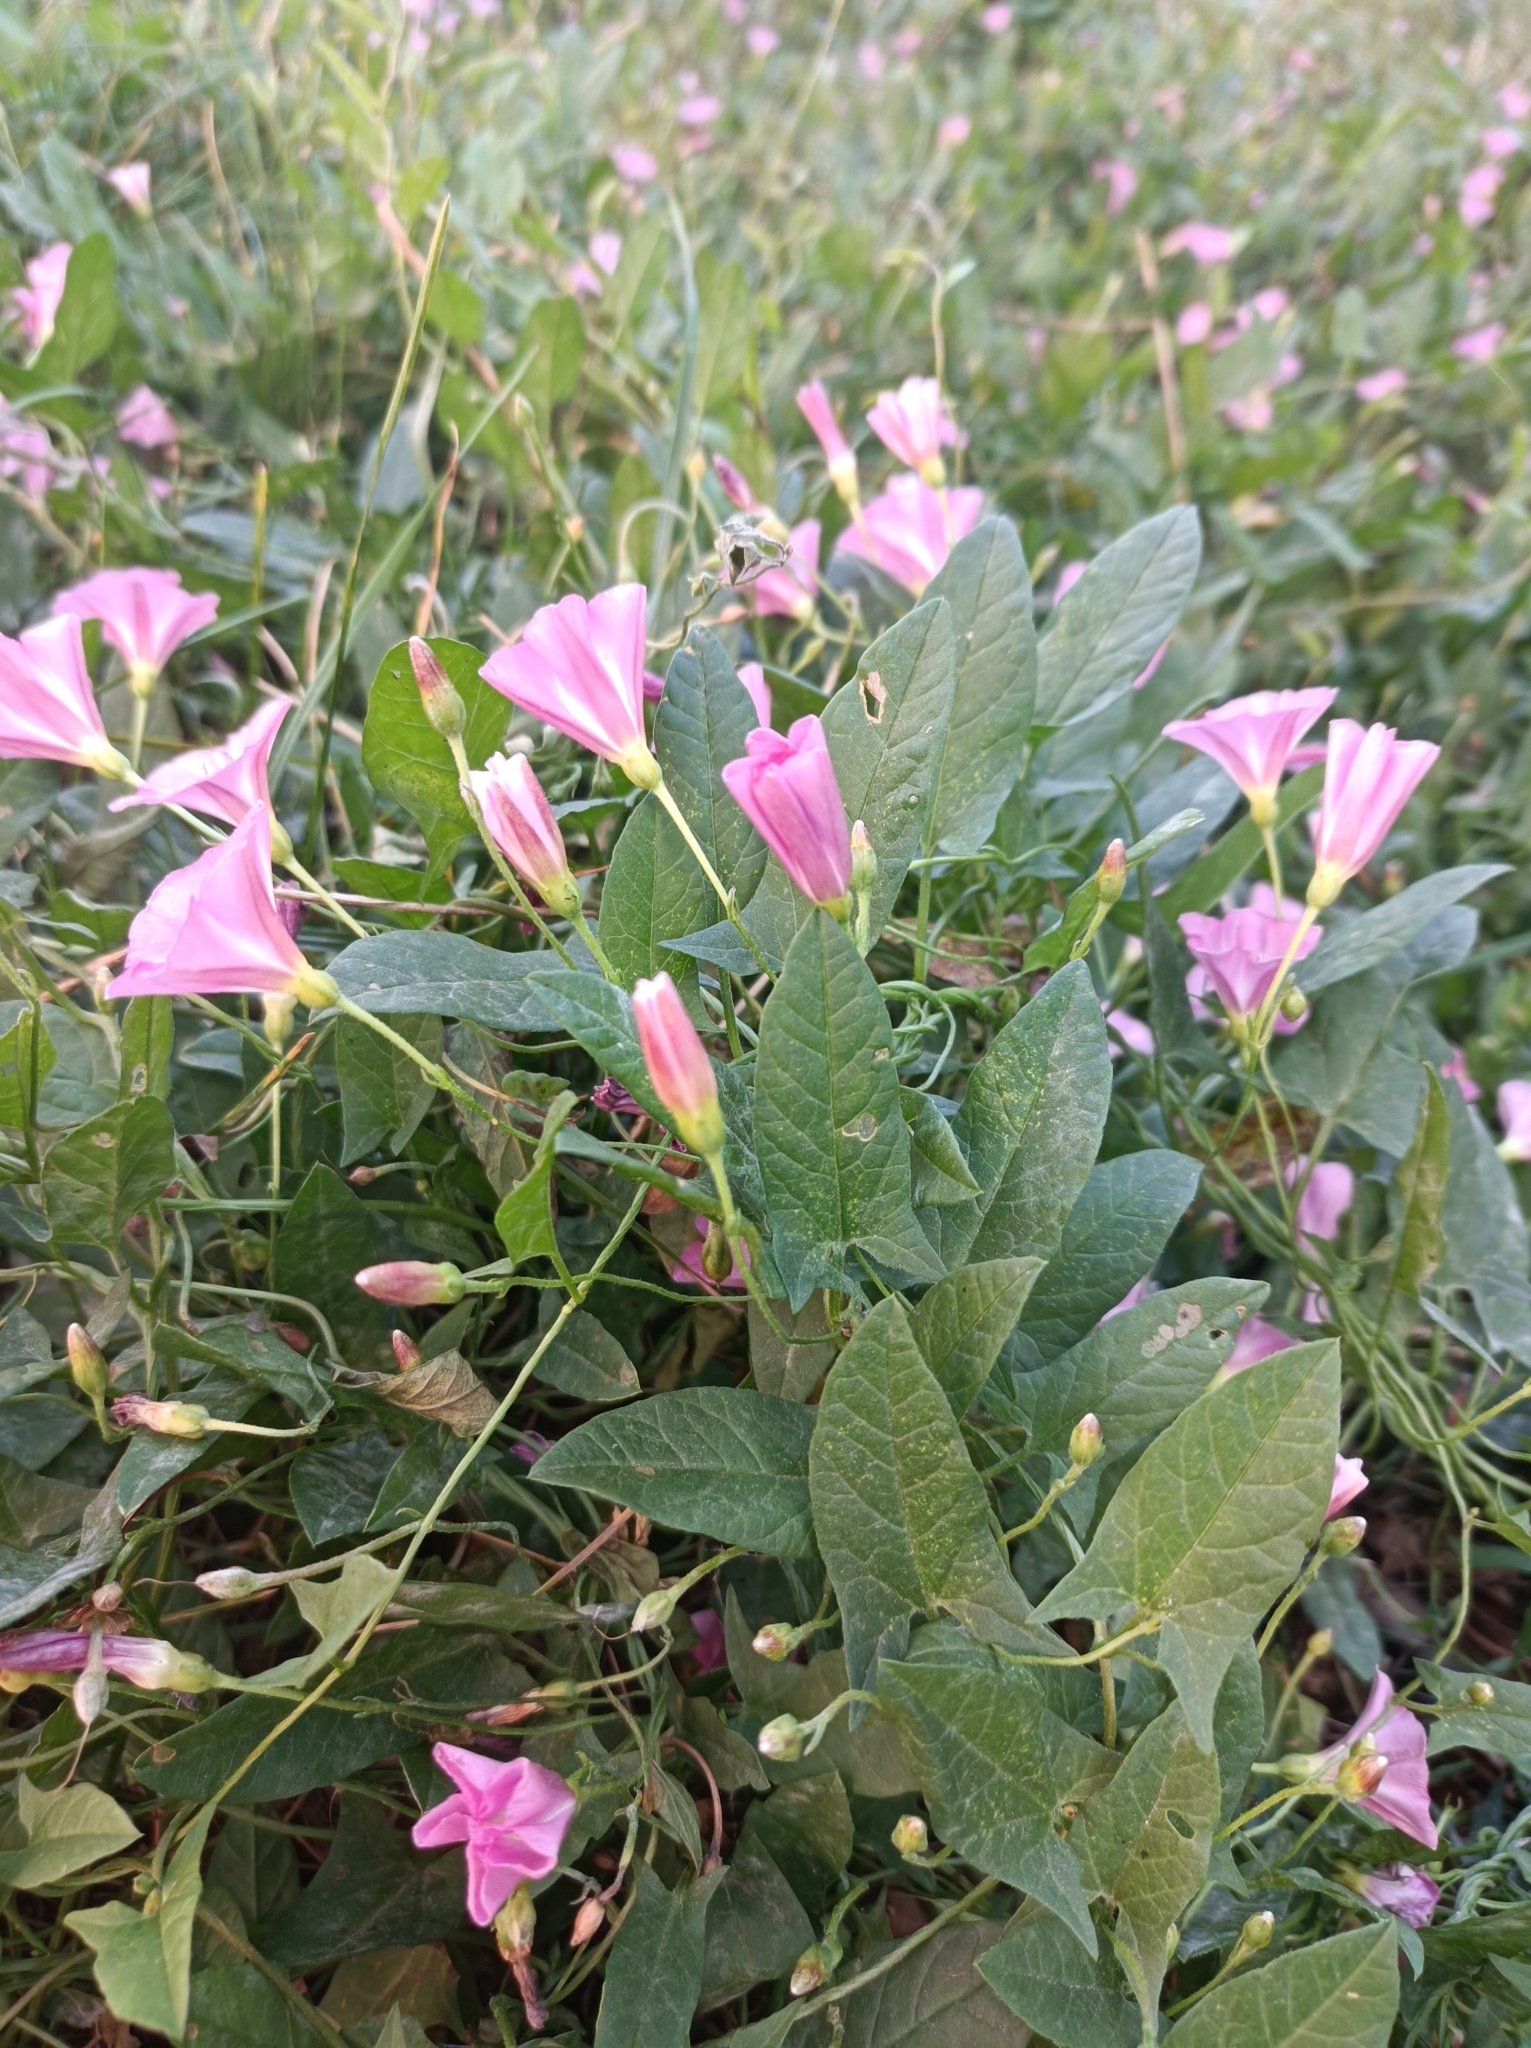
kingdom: Plantae
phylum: Tracheophyta
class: Magnoliopsida
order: Solanales
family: Convolvulaceae
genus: Convolvulus
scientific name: Convolvulus arvensis
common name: Field bindweed
